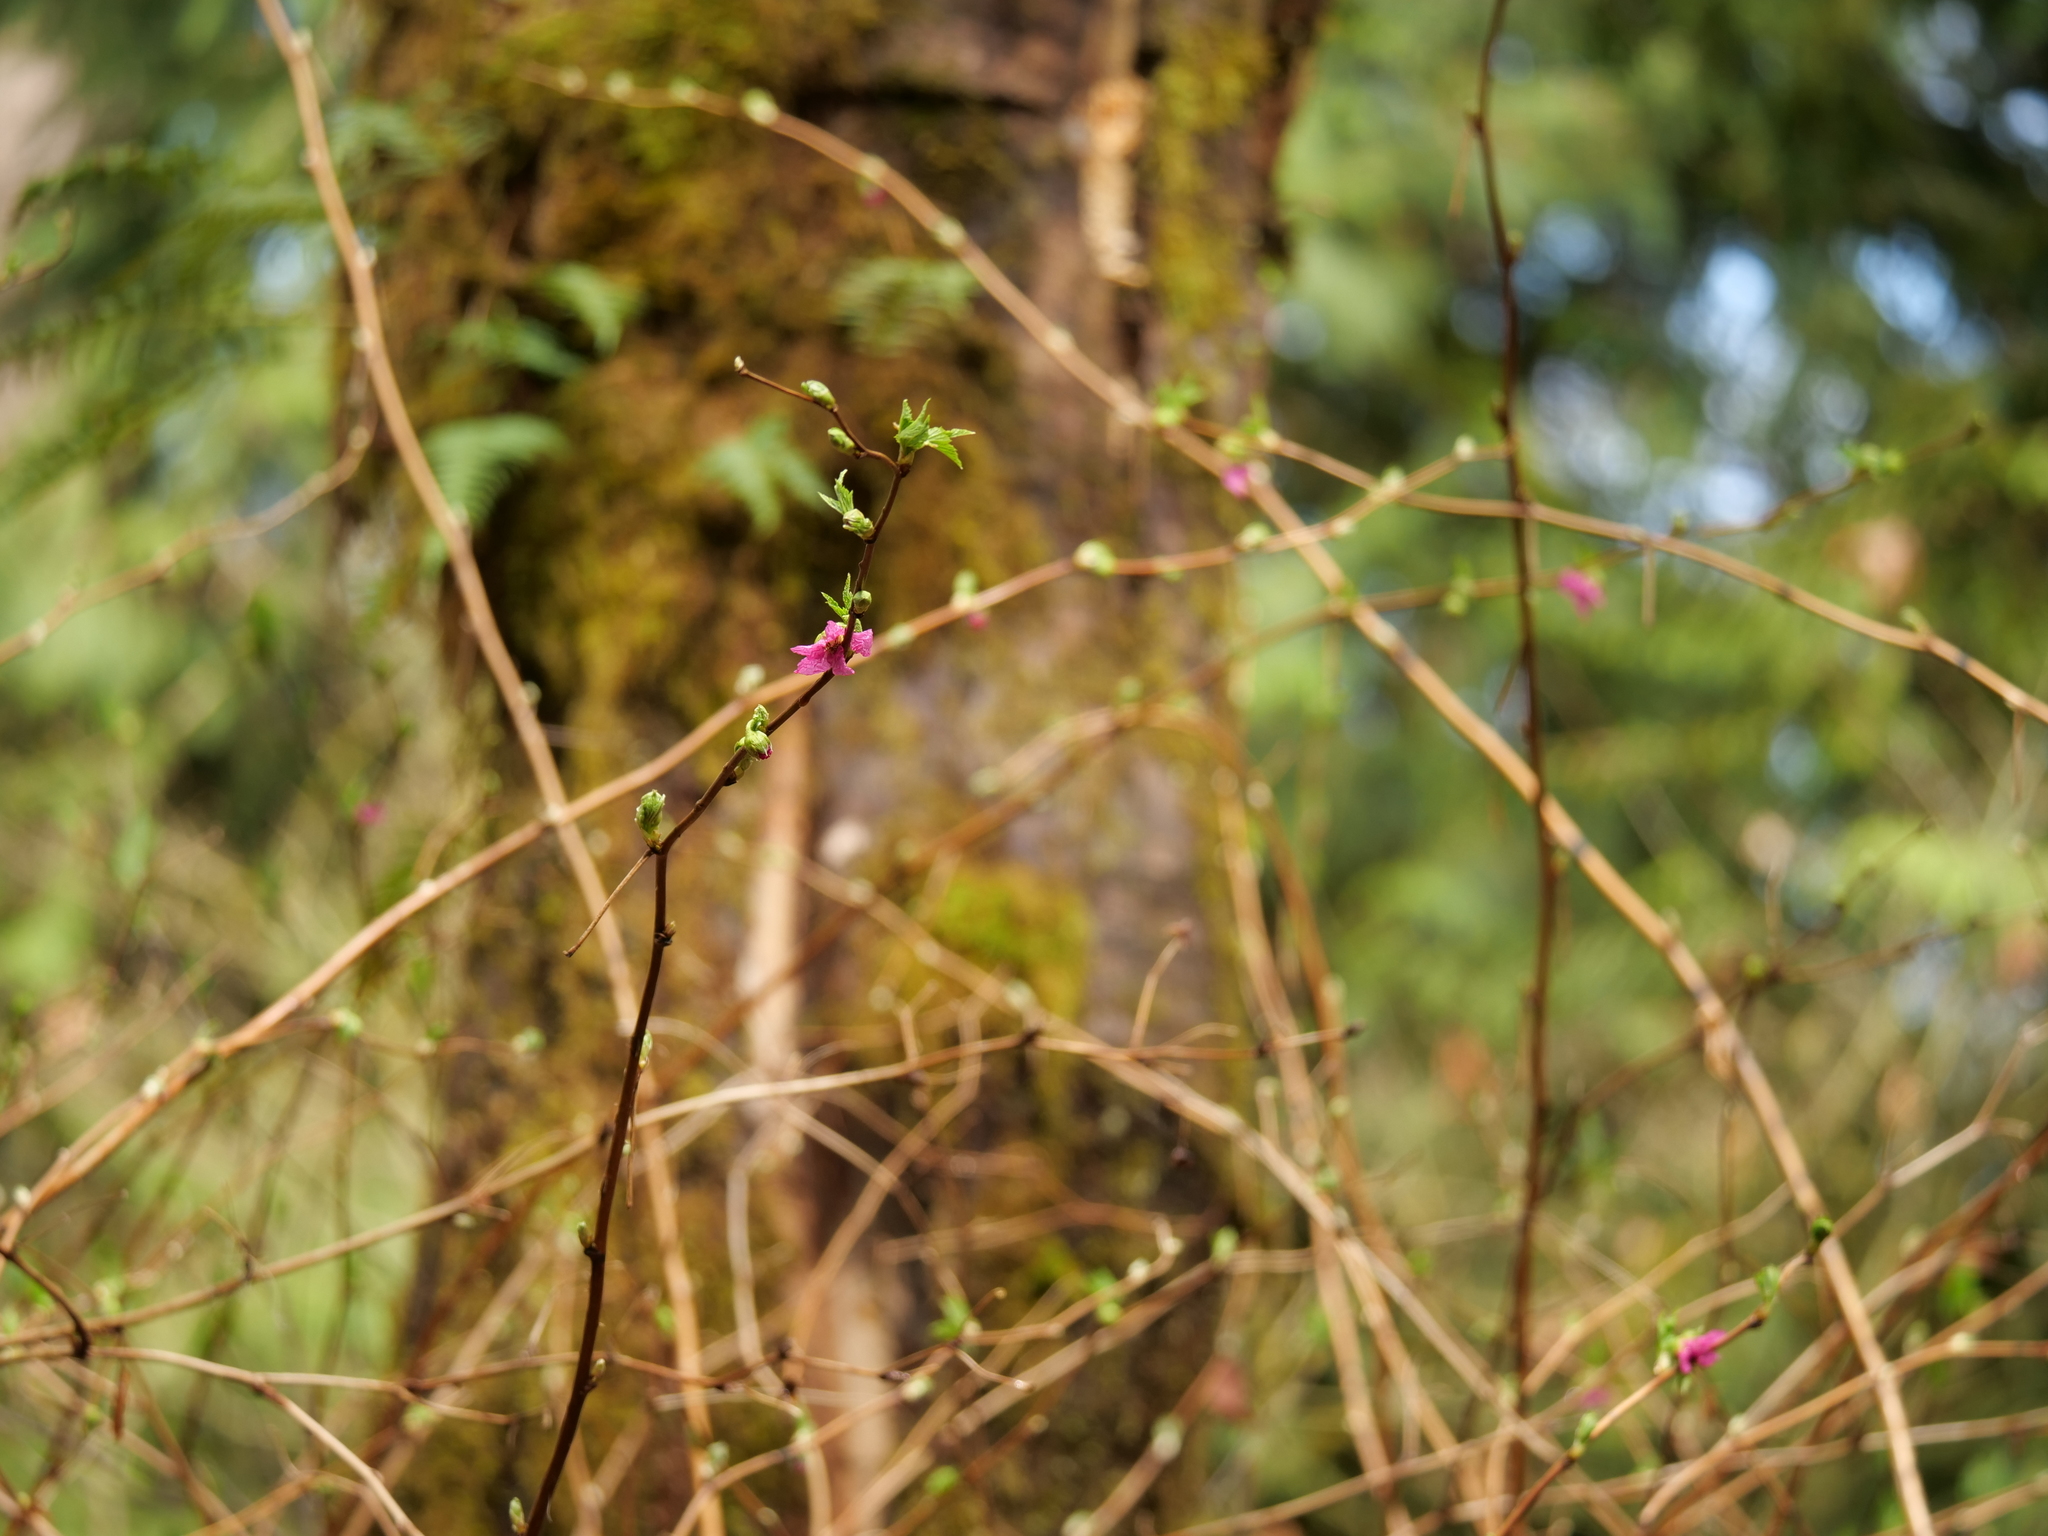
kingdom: Plantae
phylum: Tracheophyta
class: Magnoliopsida
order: Rosales
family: Rosaceae
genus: Rubus
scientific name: Rubus spectabilis
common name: Salmonberry
